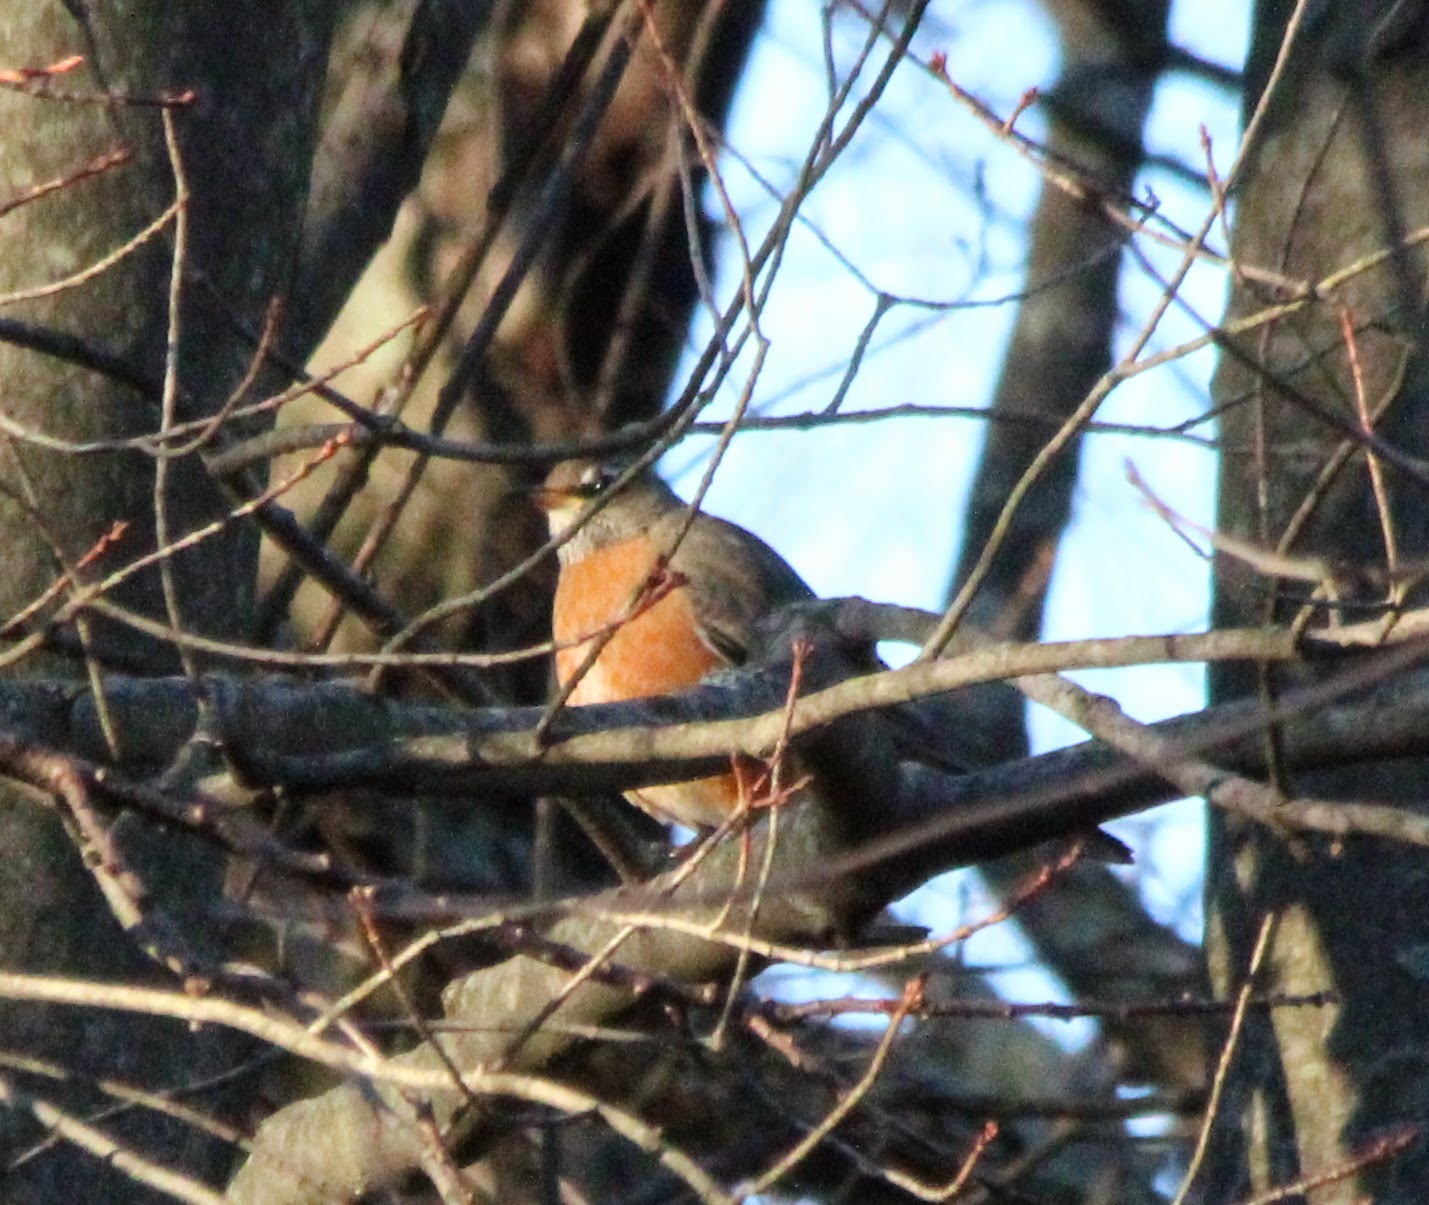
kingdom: Animalia
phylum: Chordata
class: Aves
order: Passeriformes
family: Turdidae
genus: Turdus
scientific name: Turdus migratorius
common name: American robin
